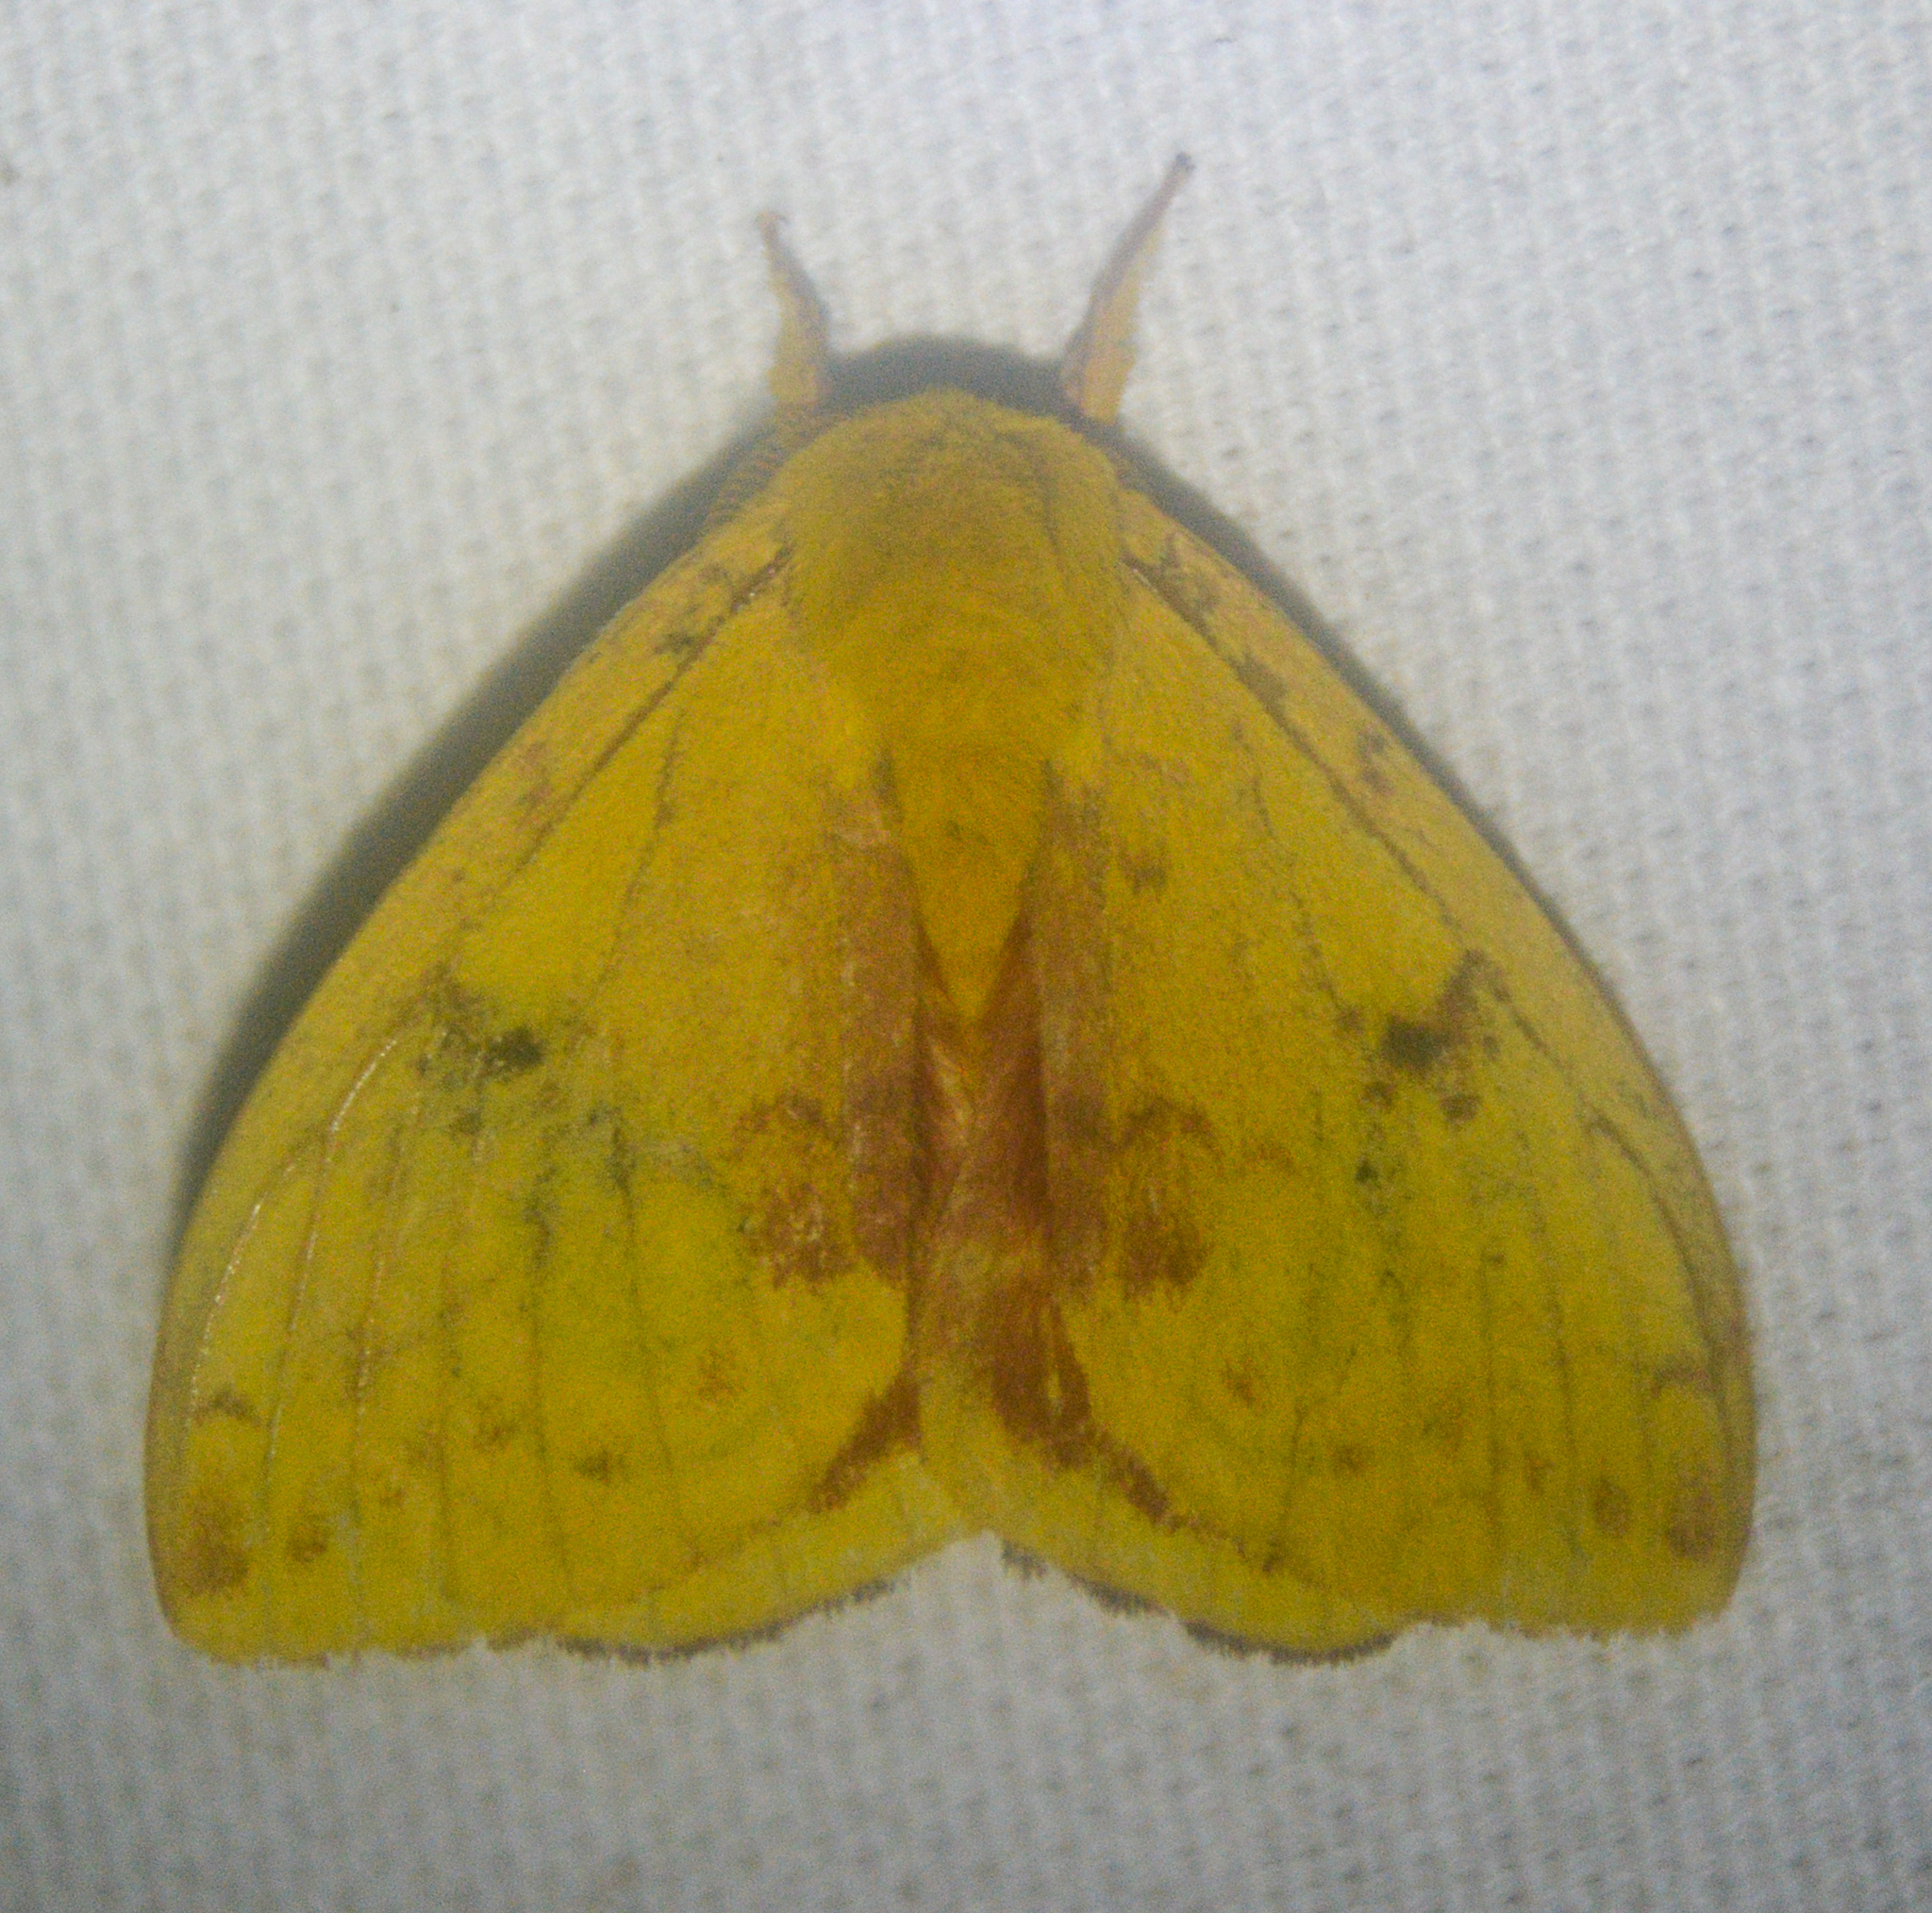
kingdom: Animalia
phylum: Arthropoda
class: Insecta
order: Lepidoptera
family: Saturniidae
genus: Automeris
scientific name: Automeris io
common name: Io moth
